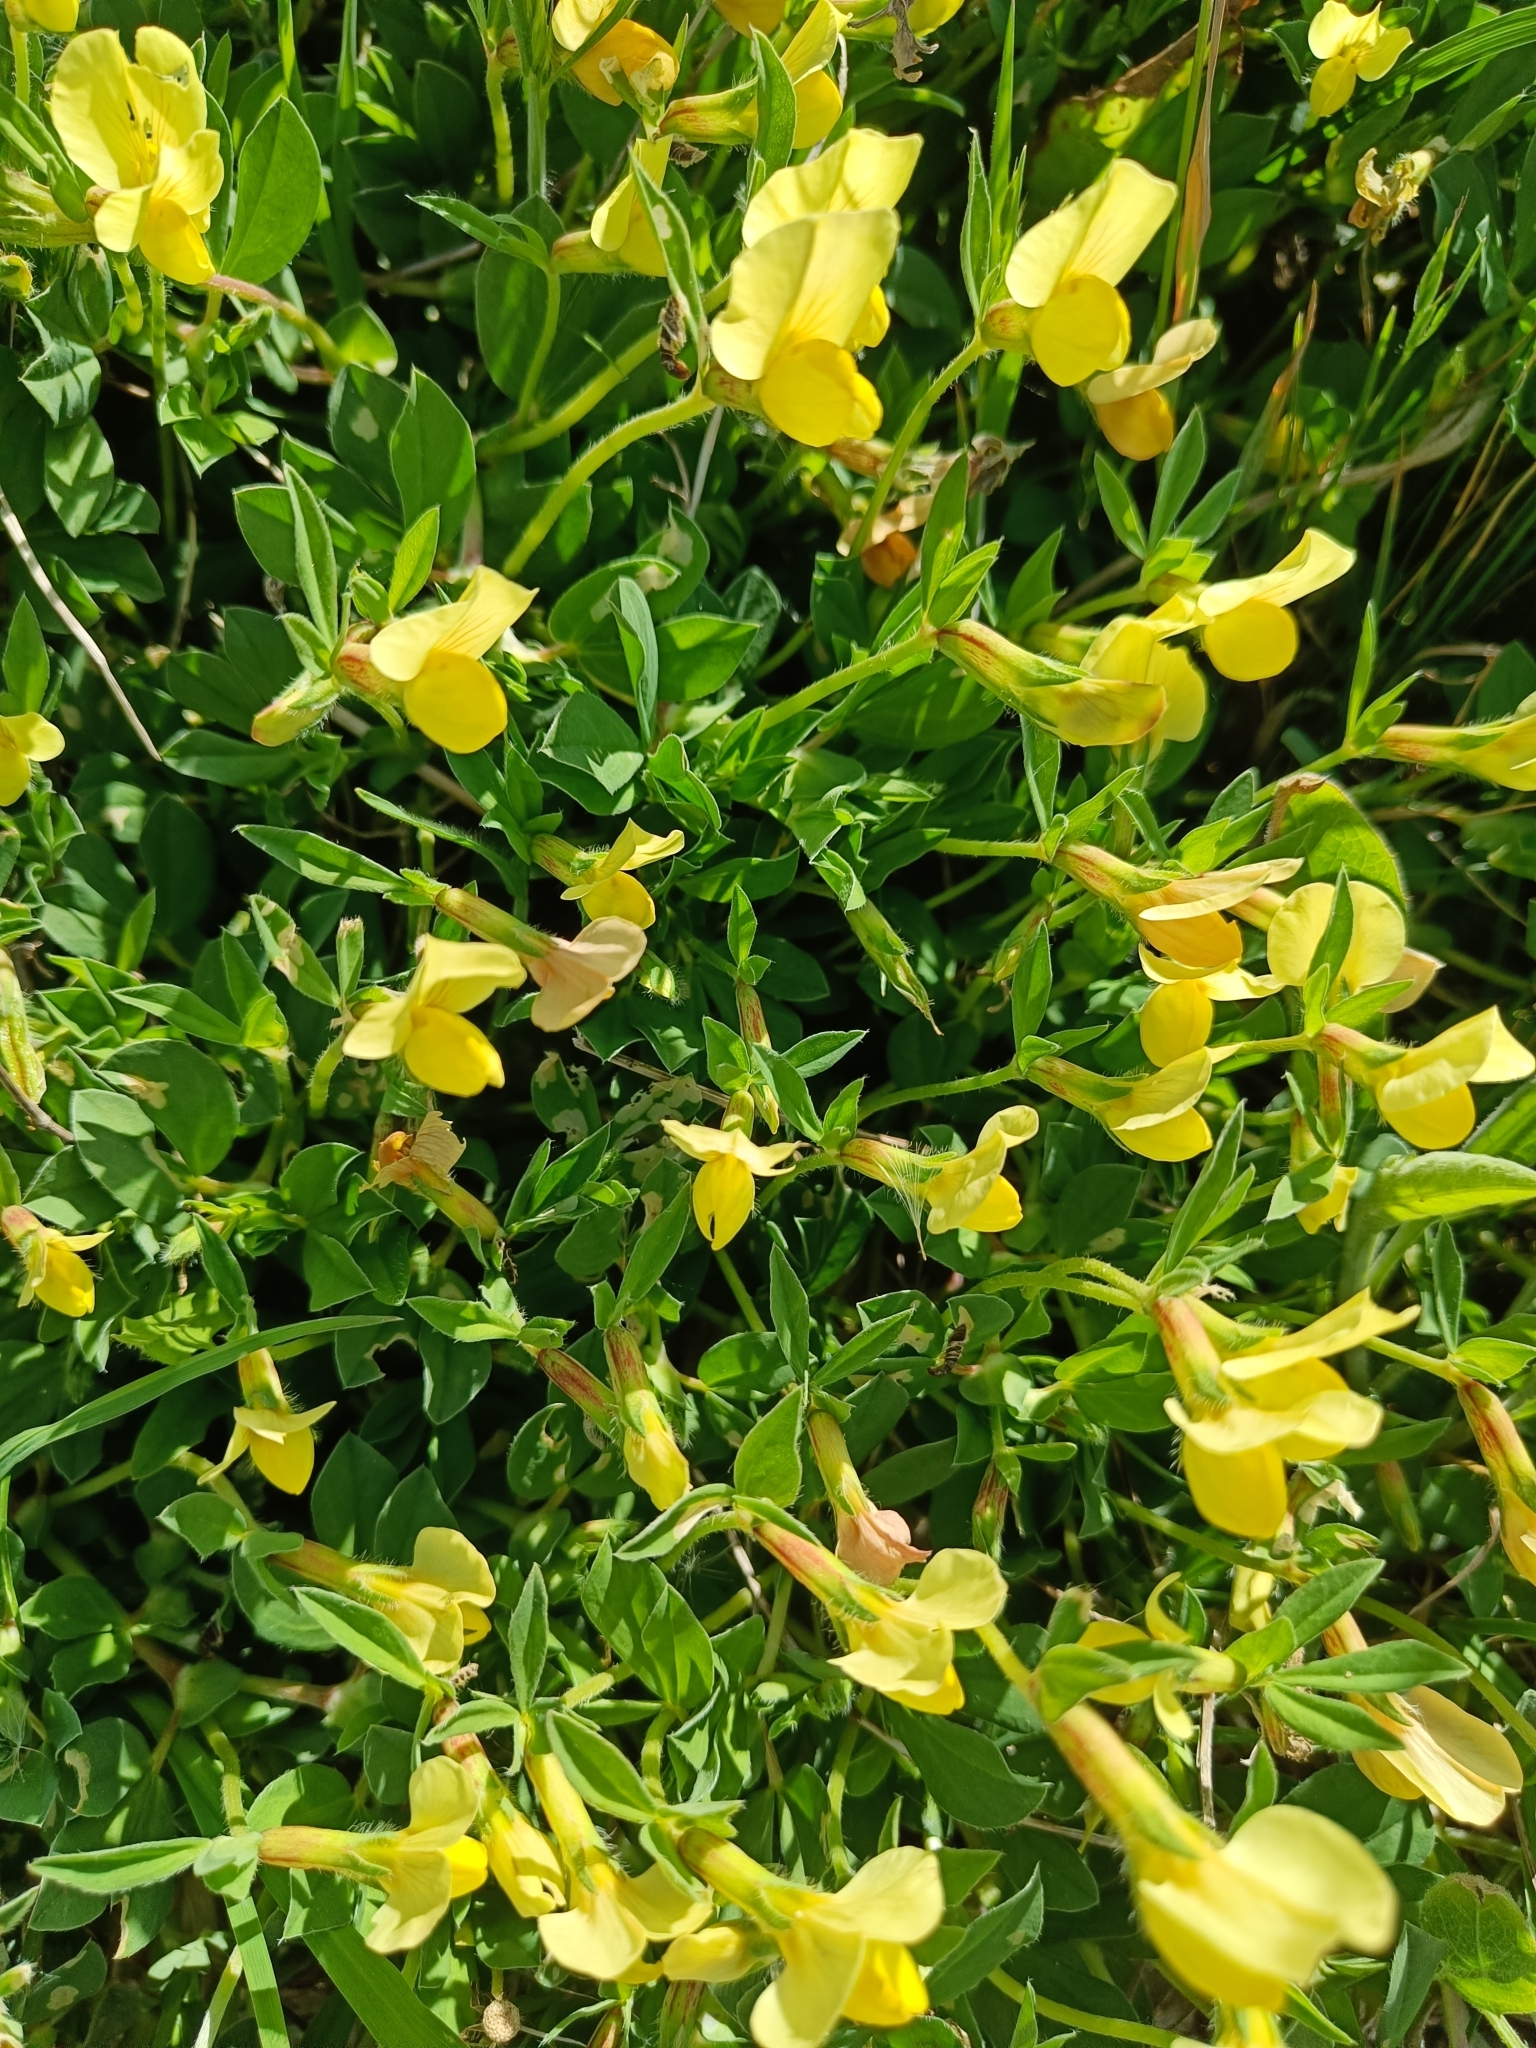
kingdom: Plantae
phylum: Tracheophyta
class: Magnoliopsida
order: Fabales
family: Fabaceae
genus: Lotus
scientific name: Lotus maritimus
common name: Dragon's-teeth
